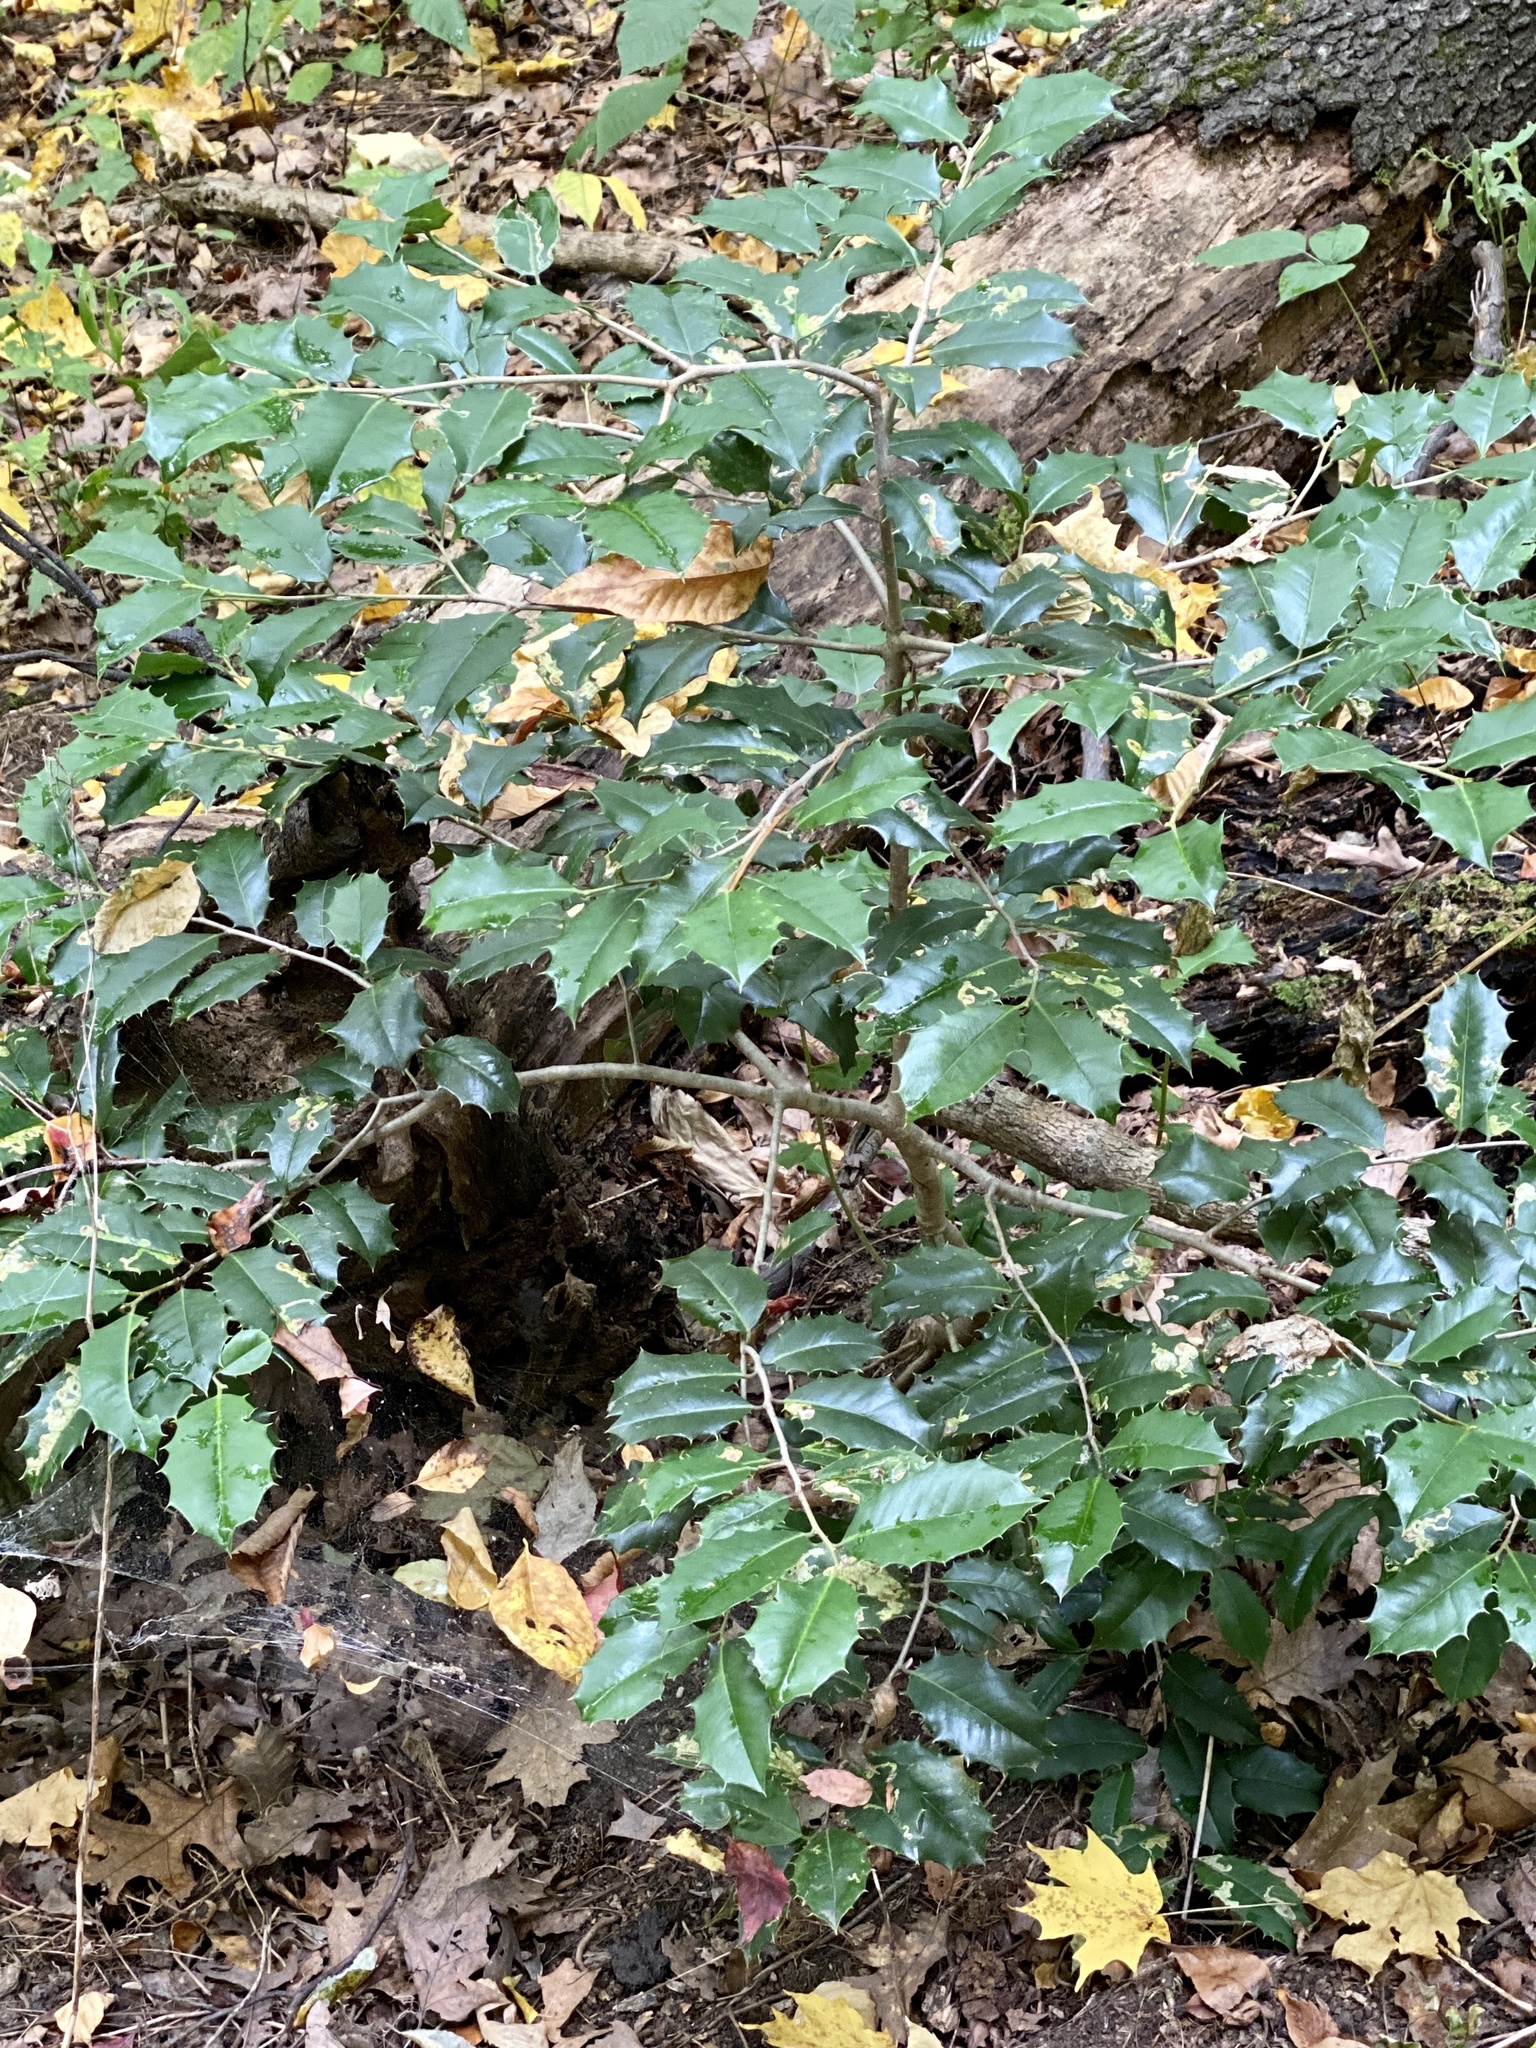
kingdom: Plantae
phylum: Tracheophyta
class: Magnoliopsida
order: Aquifoliales
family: Aquifoliaceae
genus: Ilex
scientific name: Ilex opaca
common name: American holly
